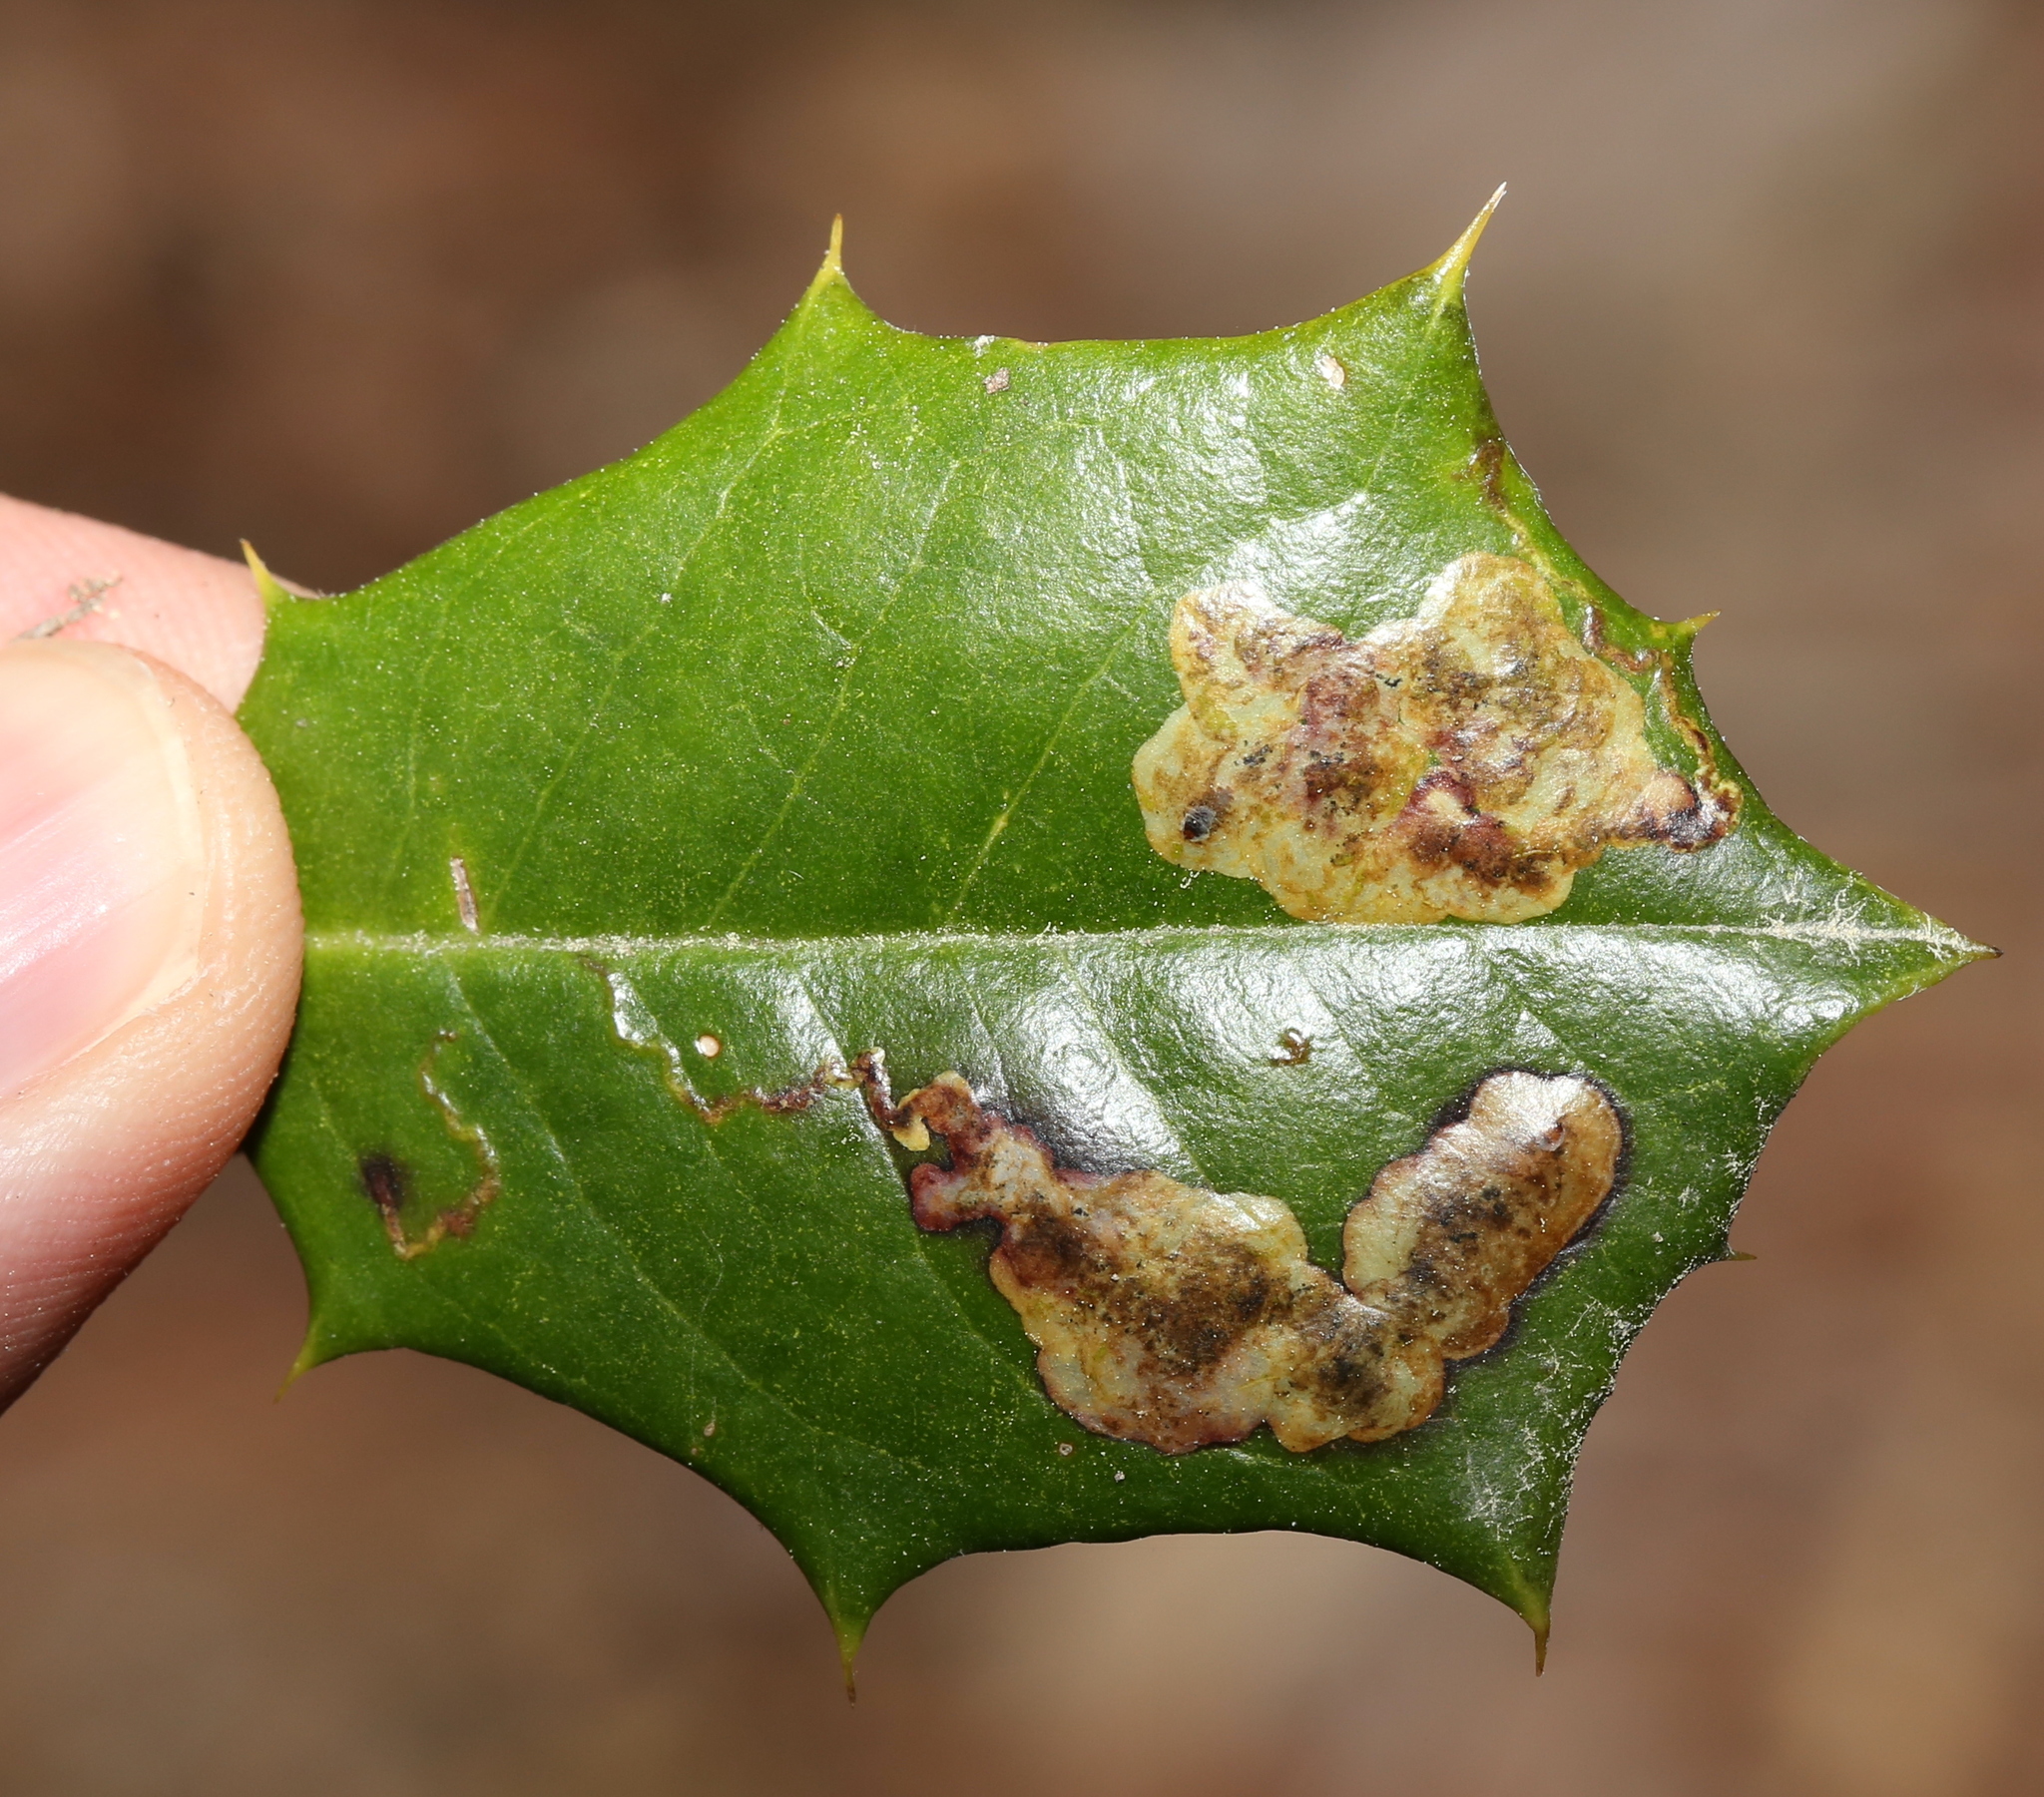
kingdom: Animalia
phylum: Arthropoda
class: Insecta
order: Diptera
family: Agromyzidae
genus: Phytomyza
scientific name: Phytomyza ilicicola
